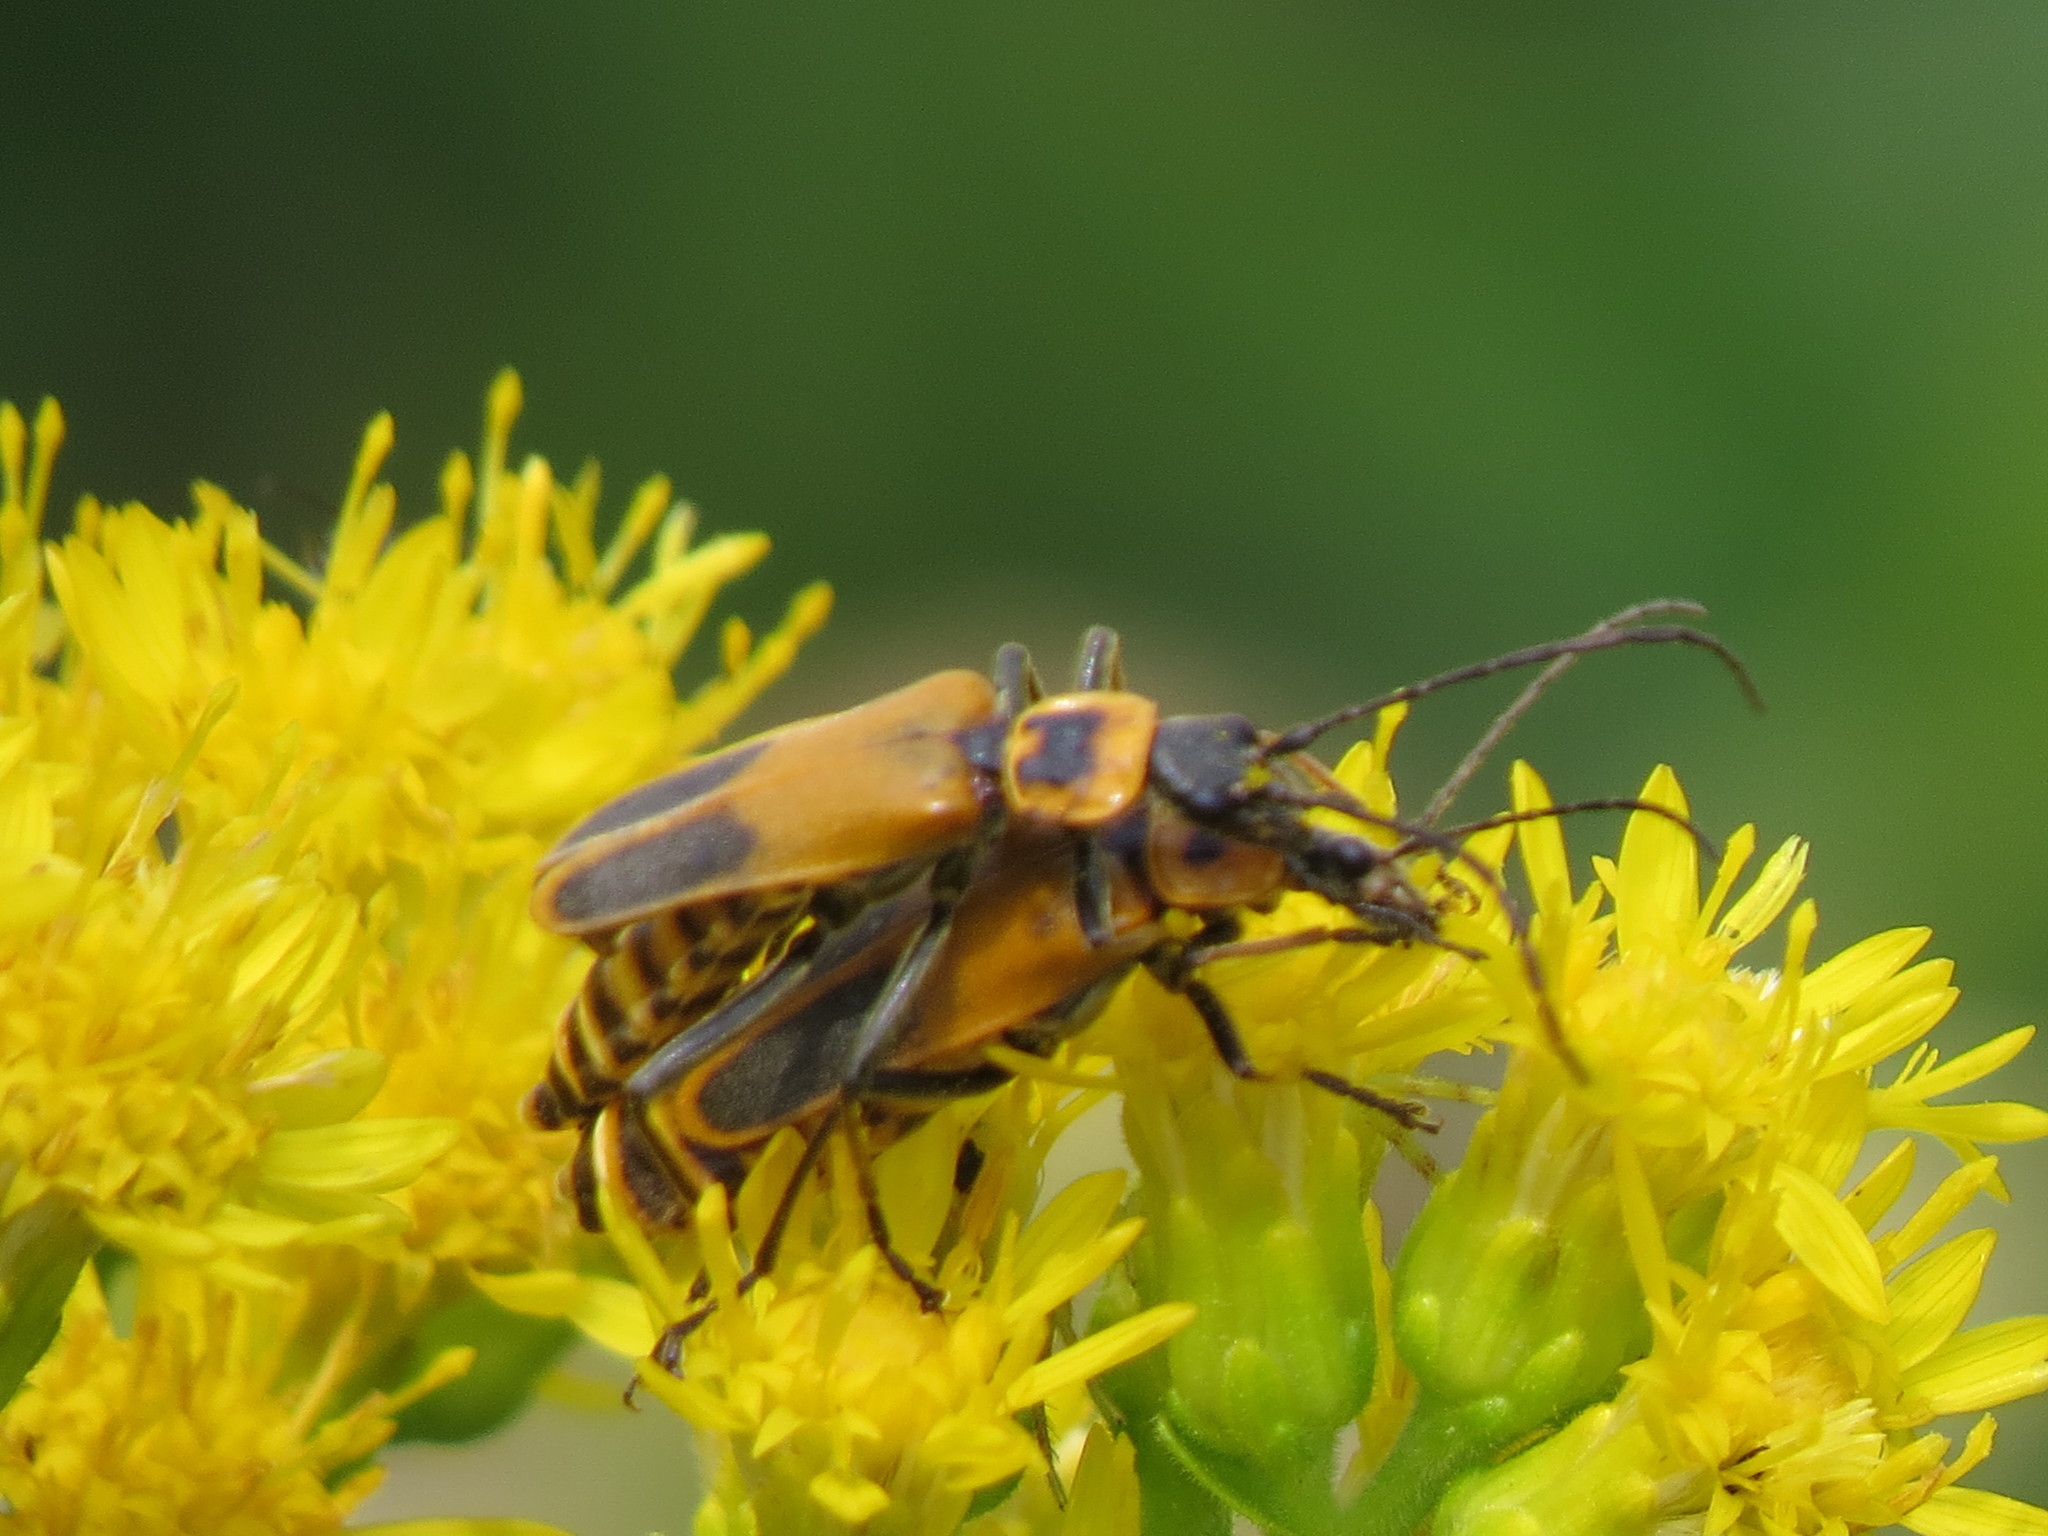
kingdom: Animalia
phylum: Arthropoda
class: Insecta
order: Coleoptera
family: Cantharidae
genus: Chauliognathus
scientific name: Chauliognathus pensylvanicus
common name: Goldenrod soldier beetle
